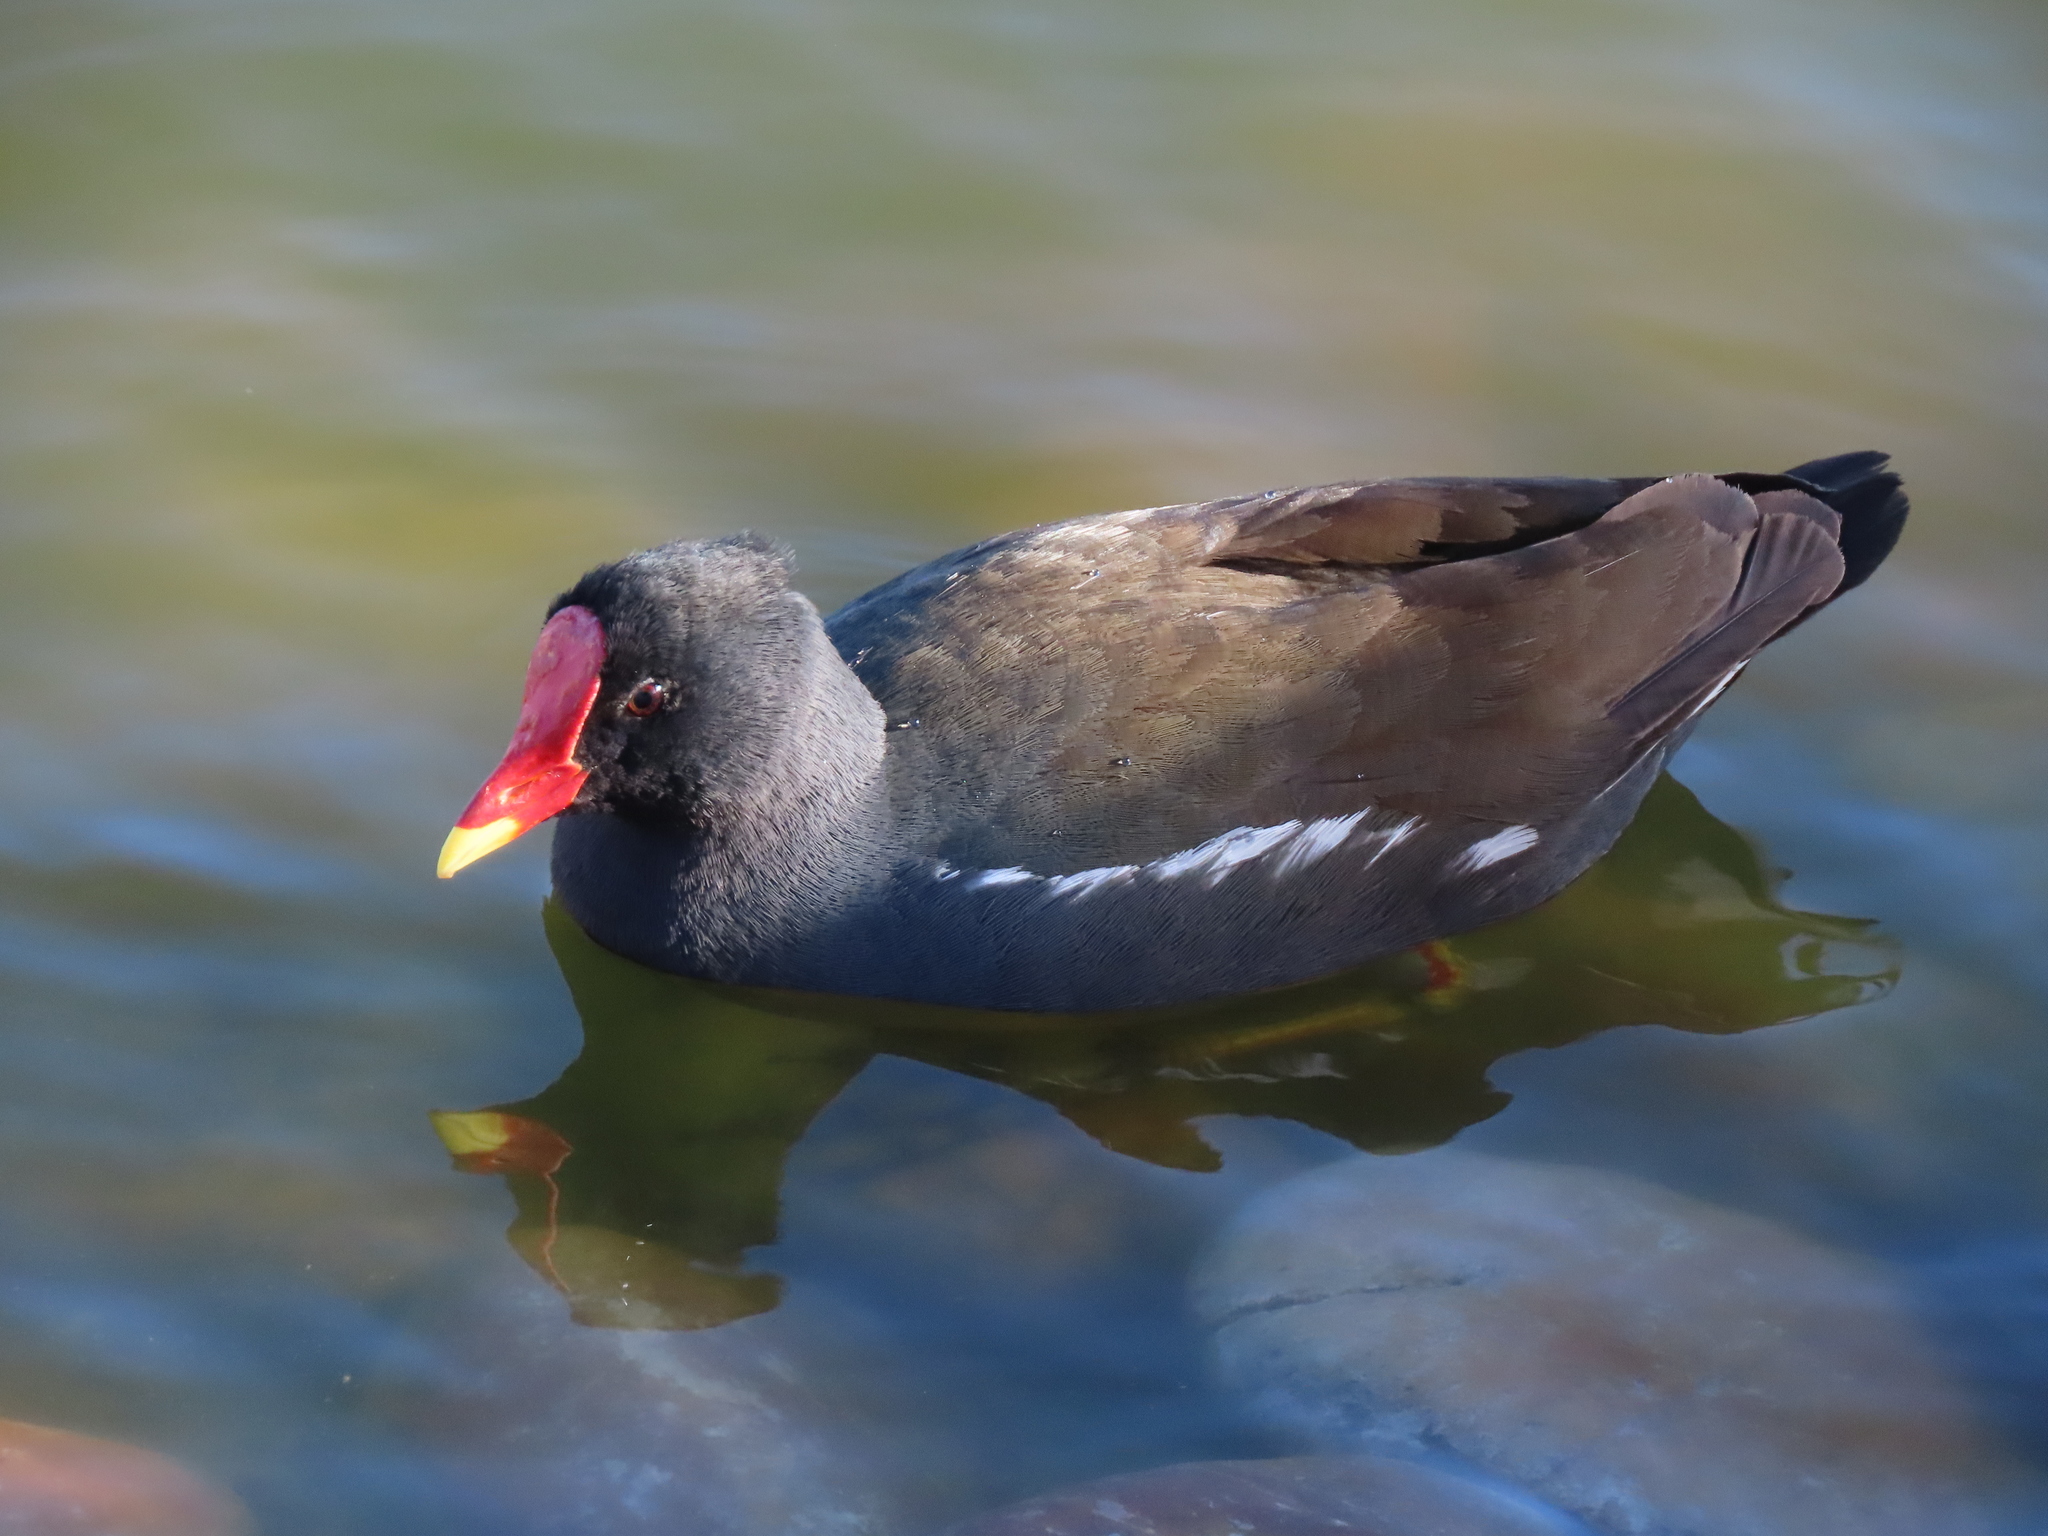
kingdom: Animalia
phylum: Chordata
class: Aves
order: Gruiformes
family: Rallidae
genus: Gallinula
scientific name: Gallinula chloropus
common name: Common moorhen
